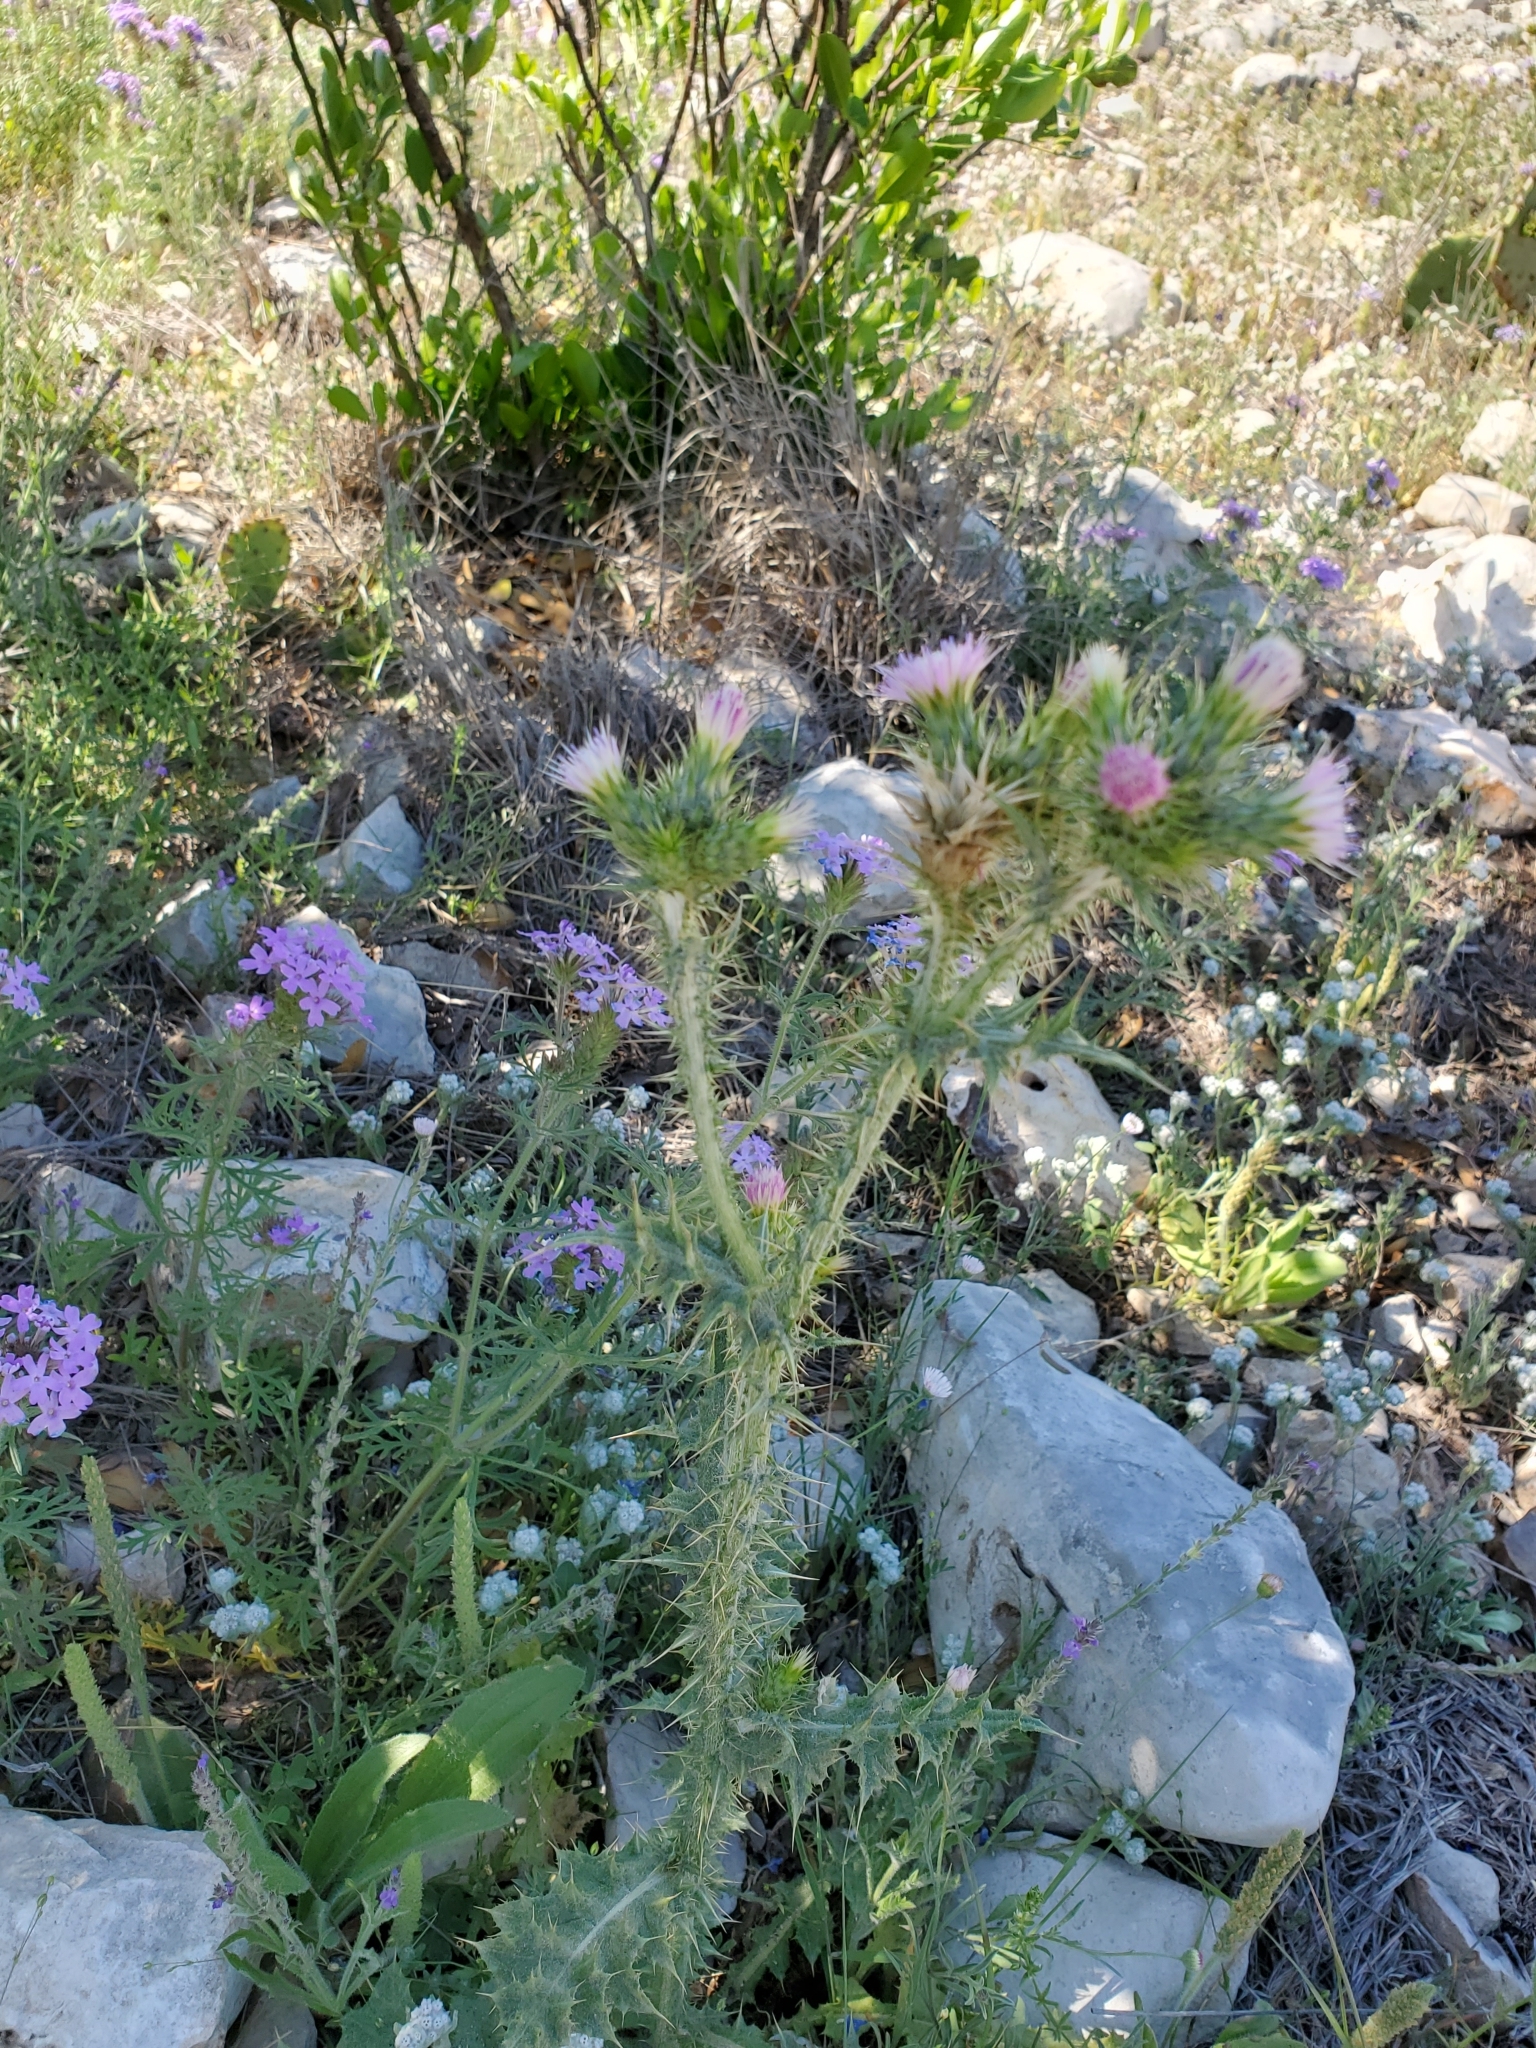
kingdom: Plantae
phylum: Tracheophyta
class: Magnoliopsida
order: Asterales
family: Asteraceae
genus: Carduus
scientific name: Carduus tenuiflorus
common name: Slender thistle
